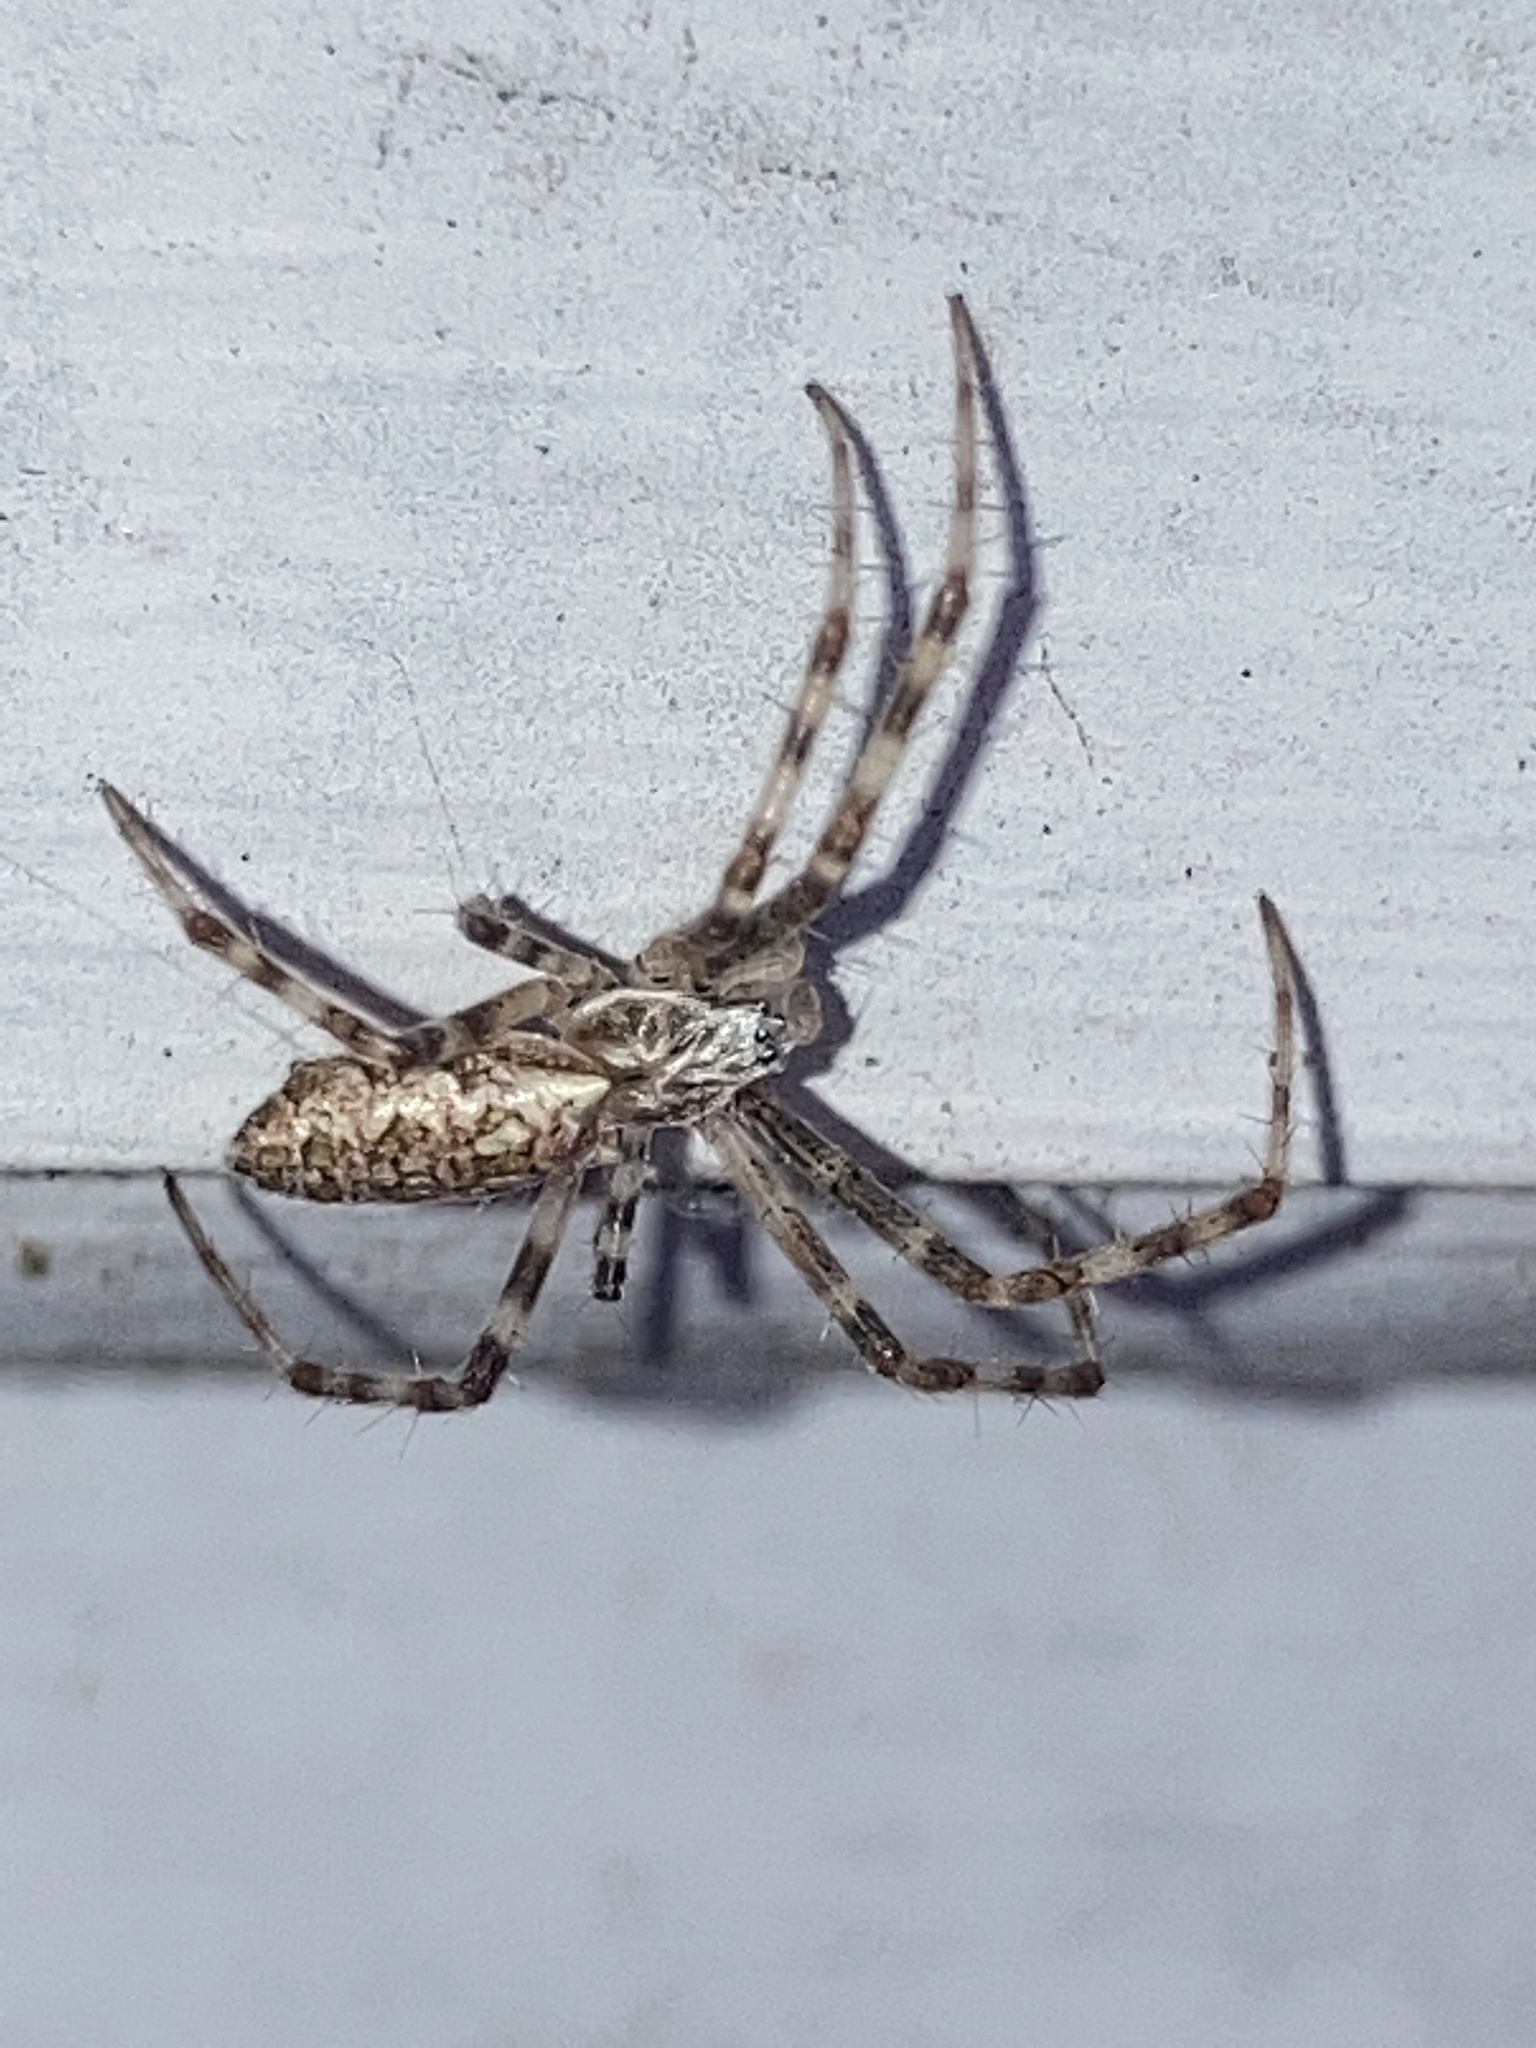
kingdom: Animalia
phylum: Arthropoda
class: Arachnida
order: Araneae
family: Araneidae
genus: Argiope
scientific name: Argiope aurantia
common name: Orb weavers
